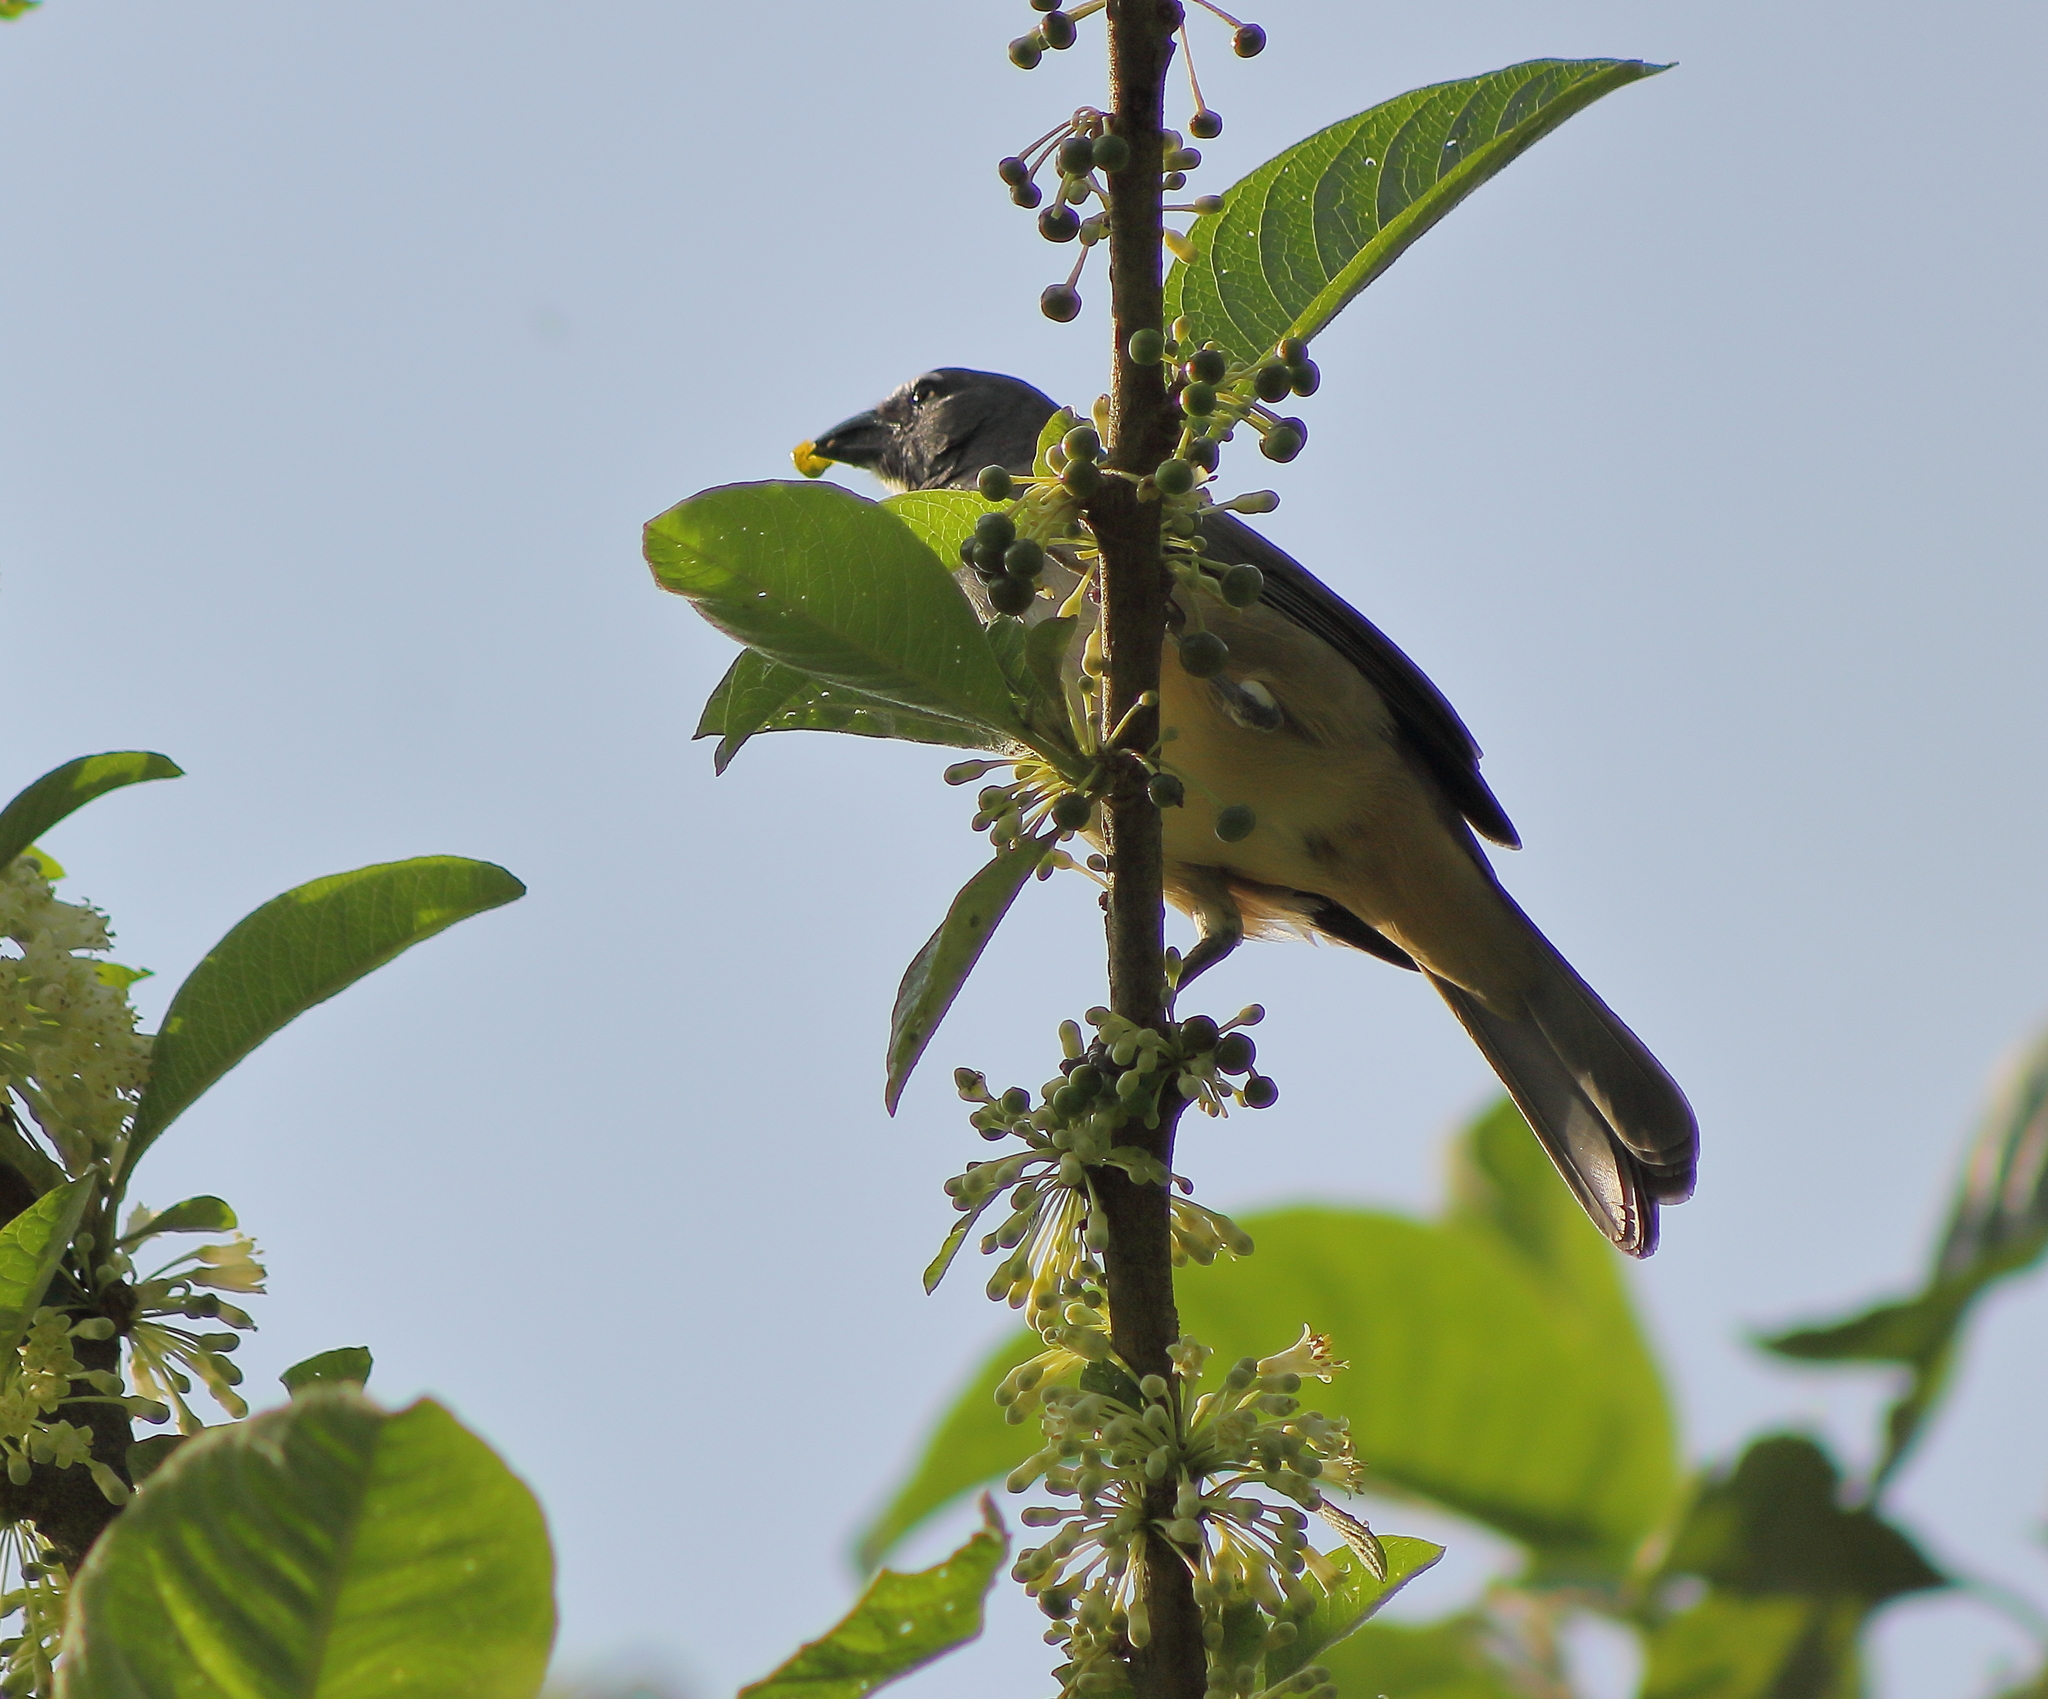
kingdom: Animalia
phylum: Chordata
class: Aves
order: Passeriformes
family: Thraupidae
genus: Saltator
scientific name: Saltator olivascens
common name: Caribbean grey saltator
